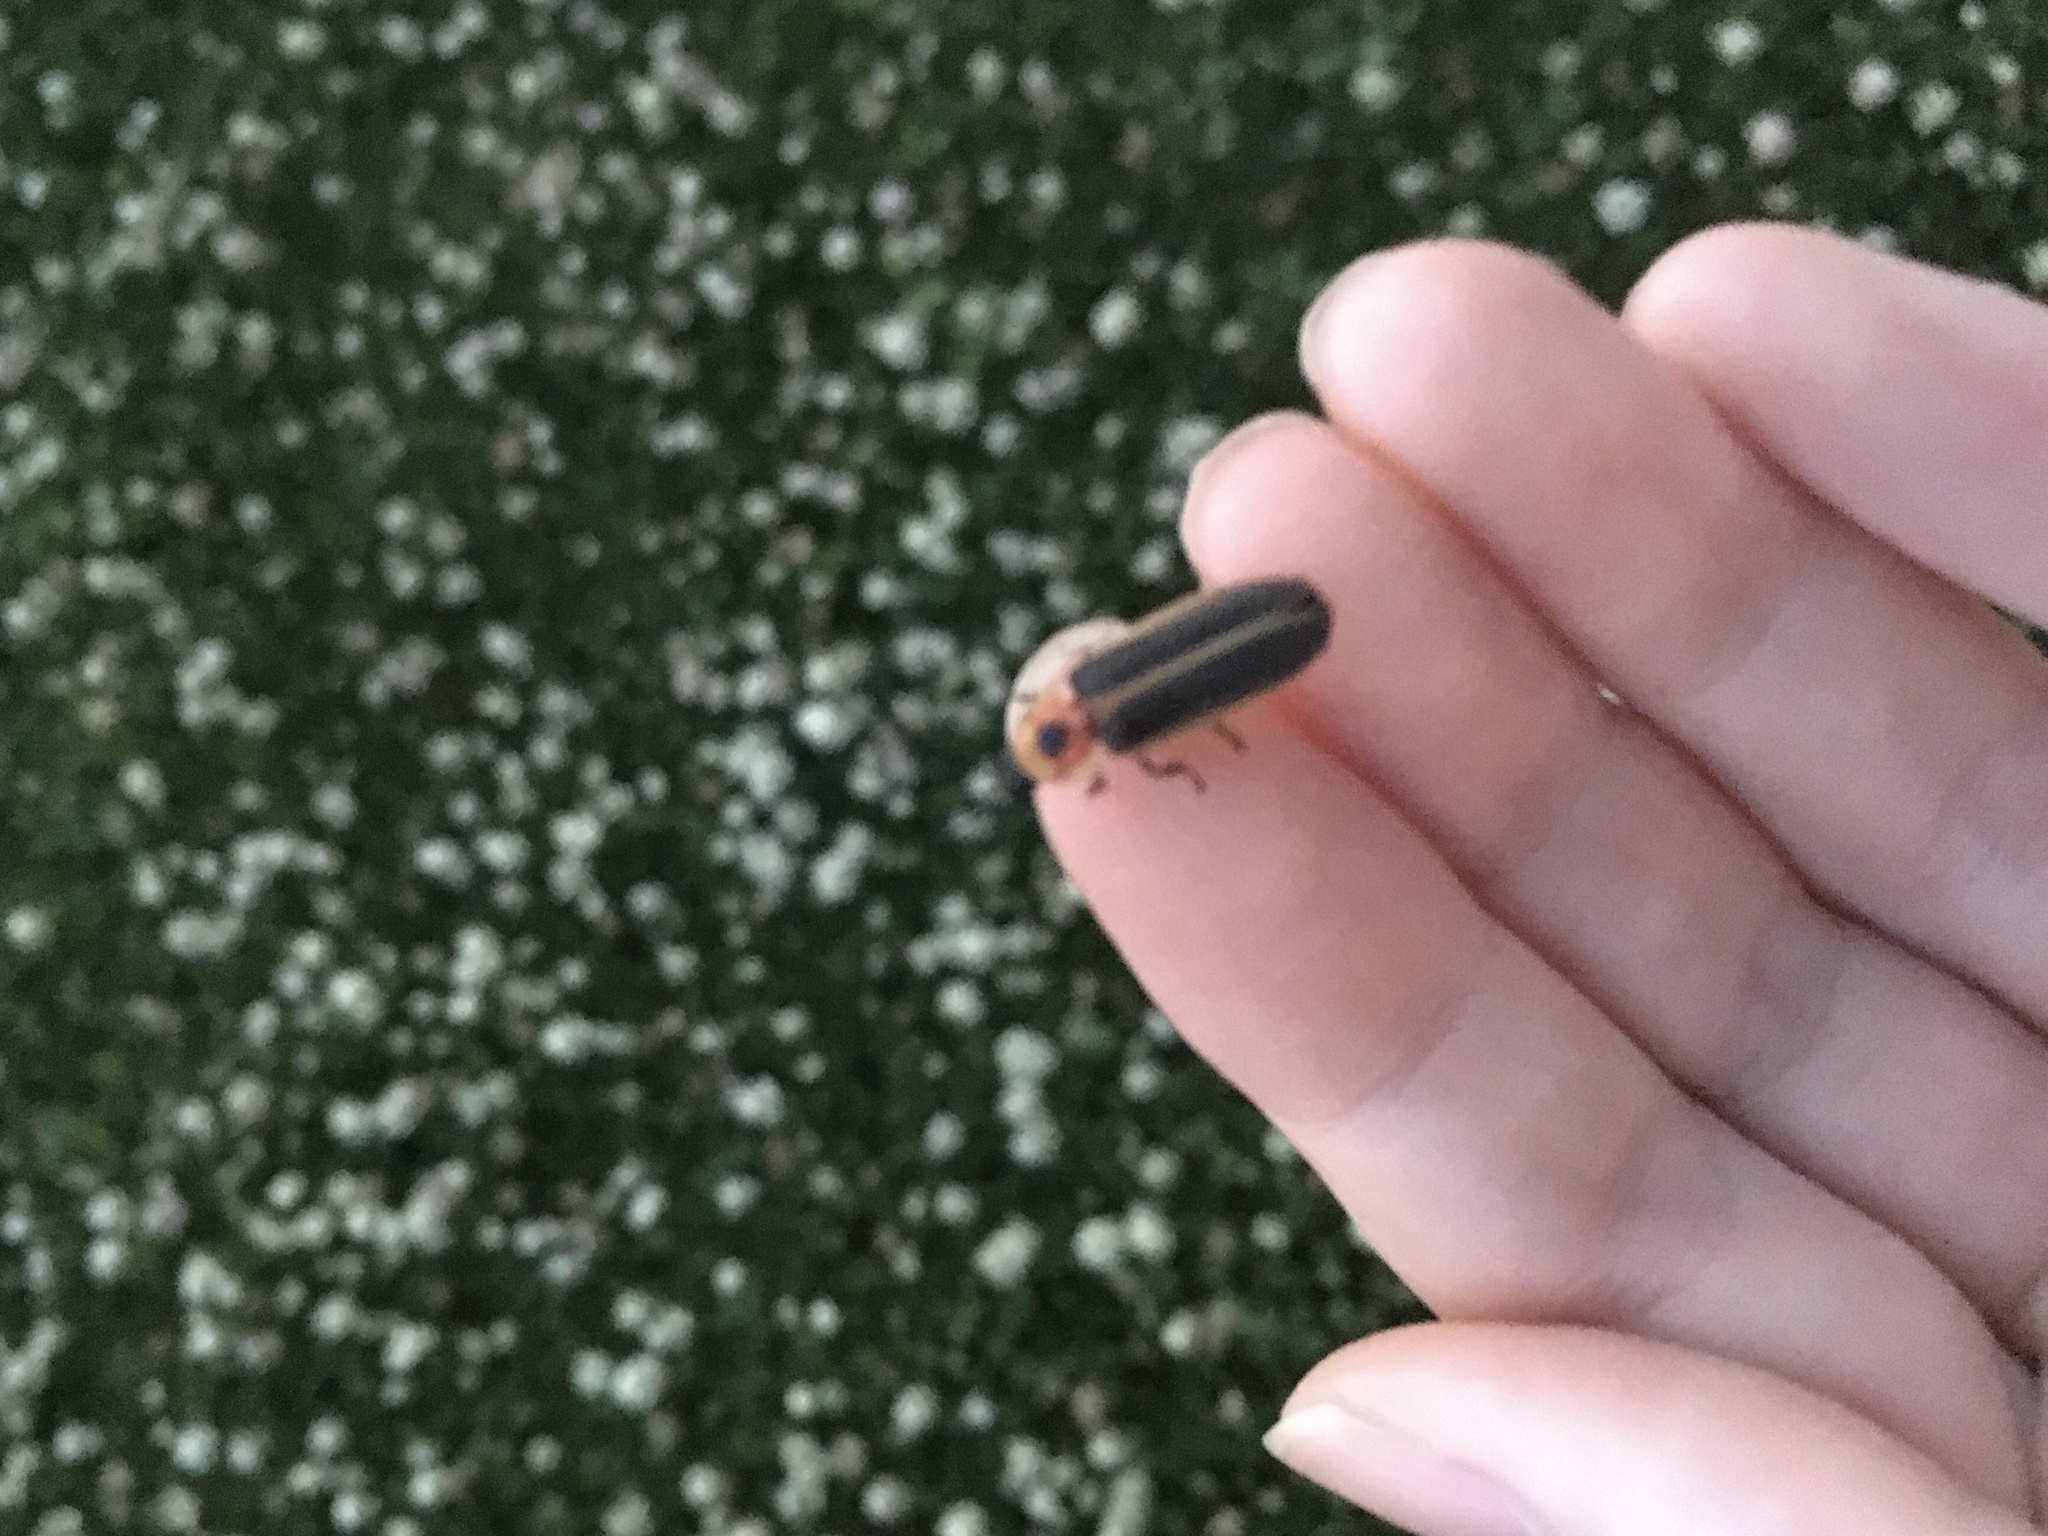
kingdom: Animalia
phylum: Arthropoda
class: Insecta
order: Coleoptera
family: Lampyridae
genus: Photinus
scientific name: Photinus pyralis
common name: Big dipper firefly
